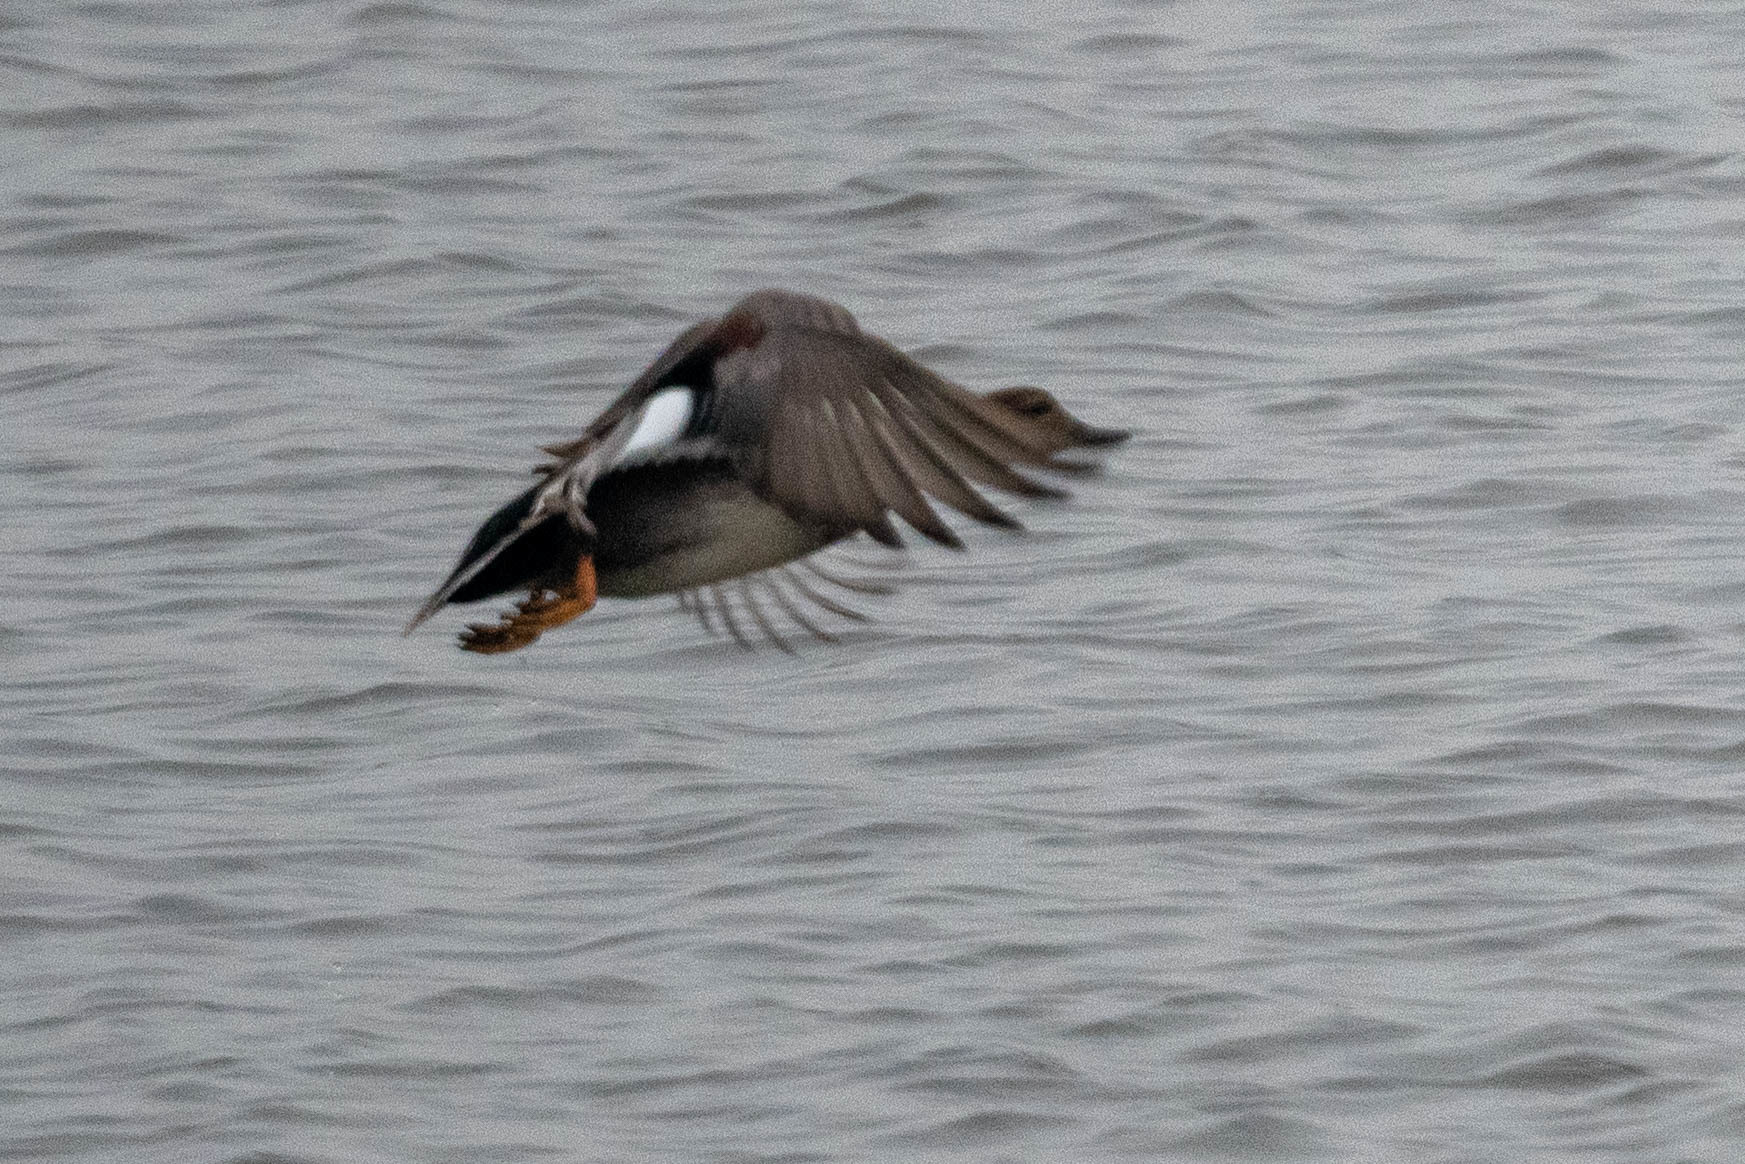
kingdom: Animalia
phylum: Chordata
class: Aves
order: Anseriformes
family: Anatidae
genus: Mareca
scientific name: Mareca strepera
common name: Gadwall
